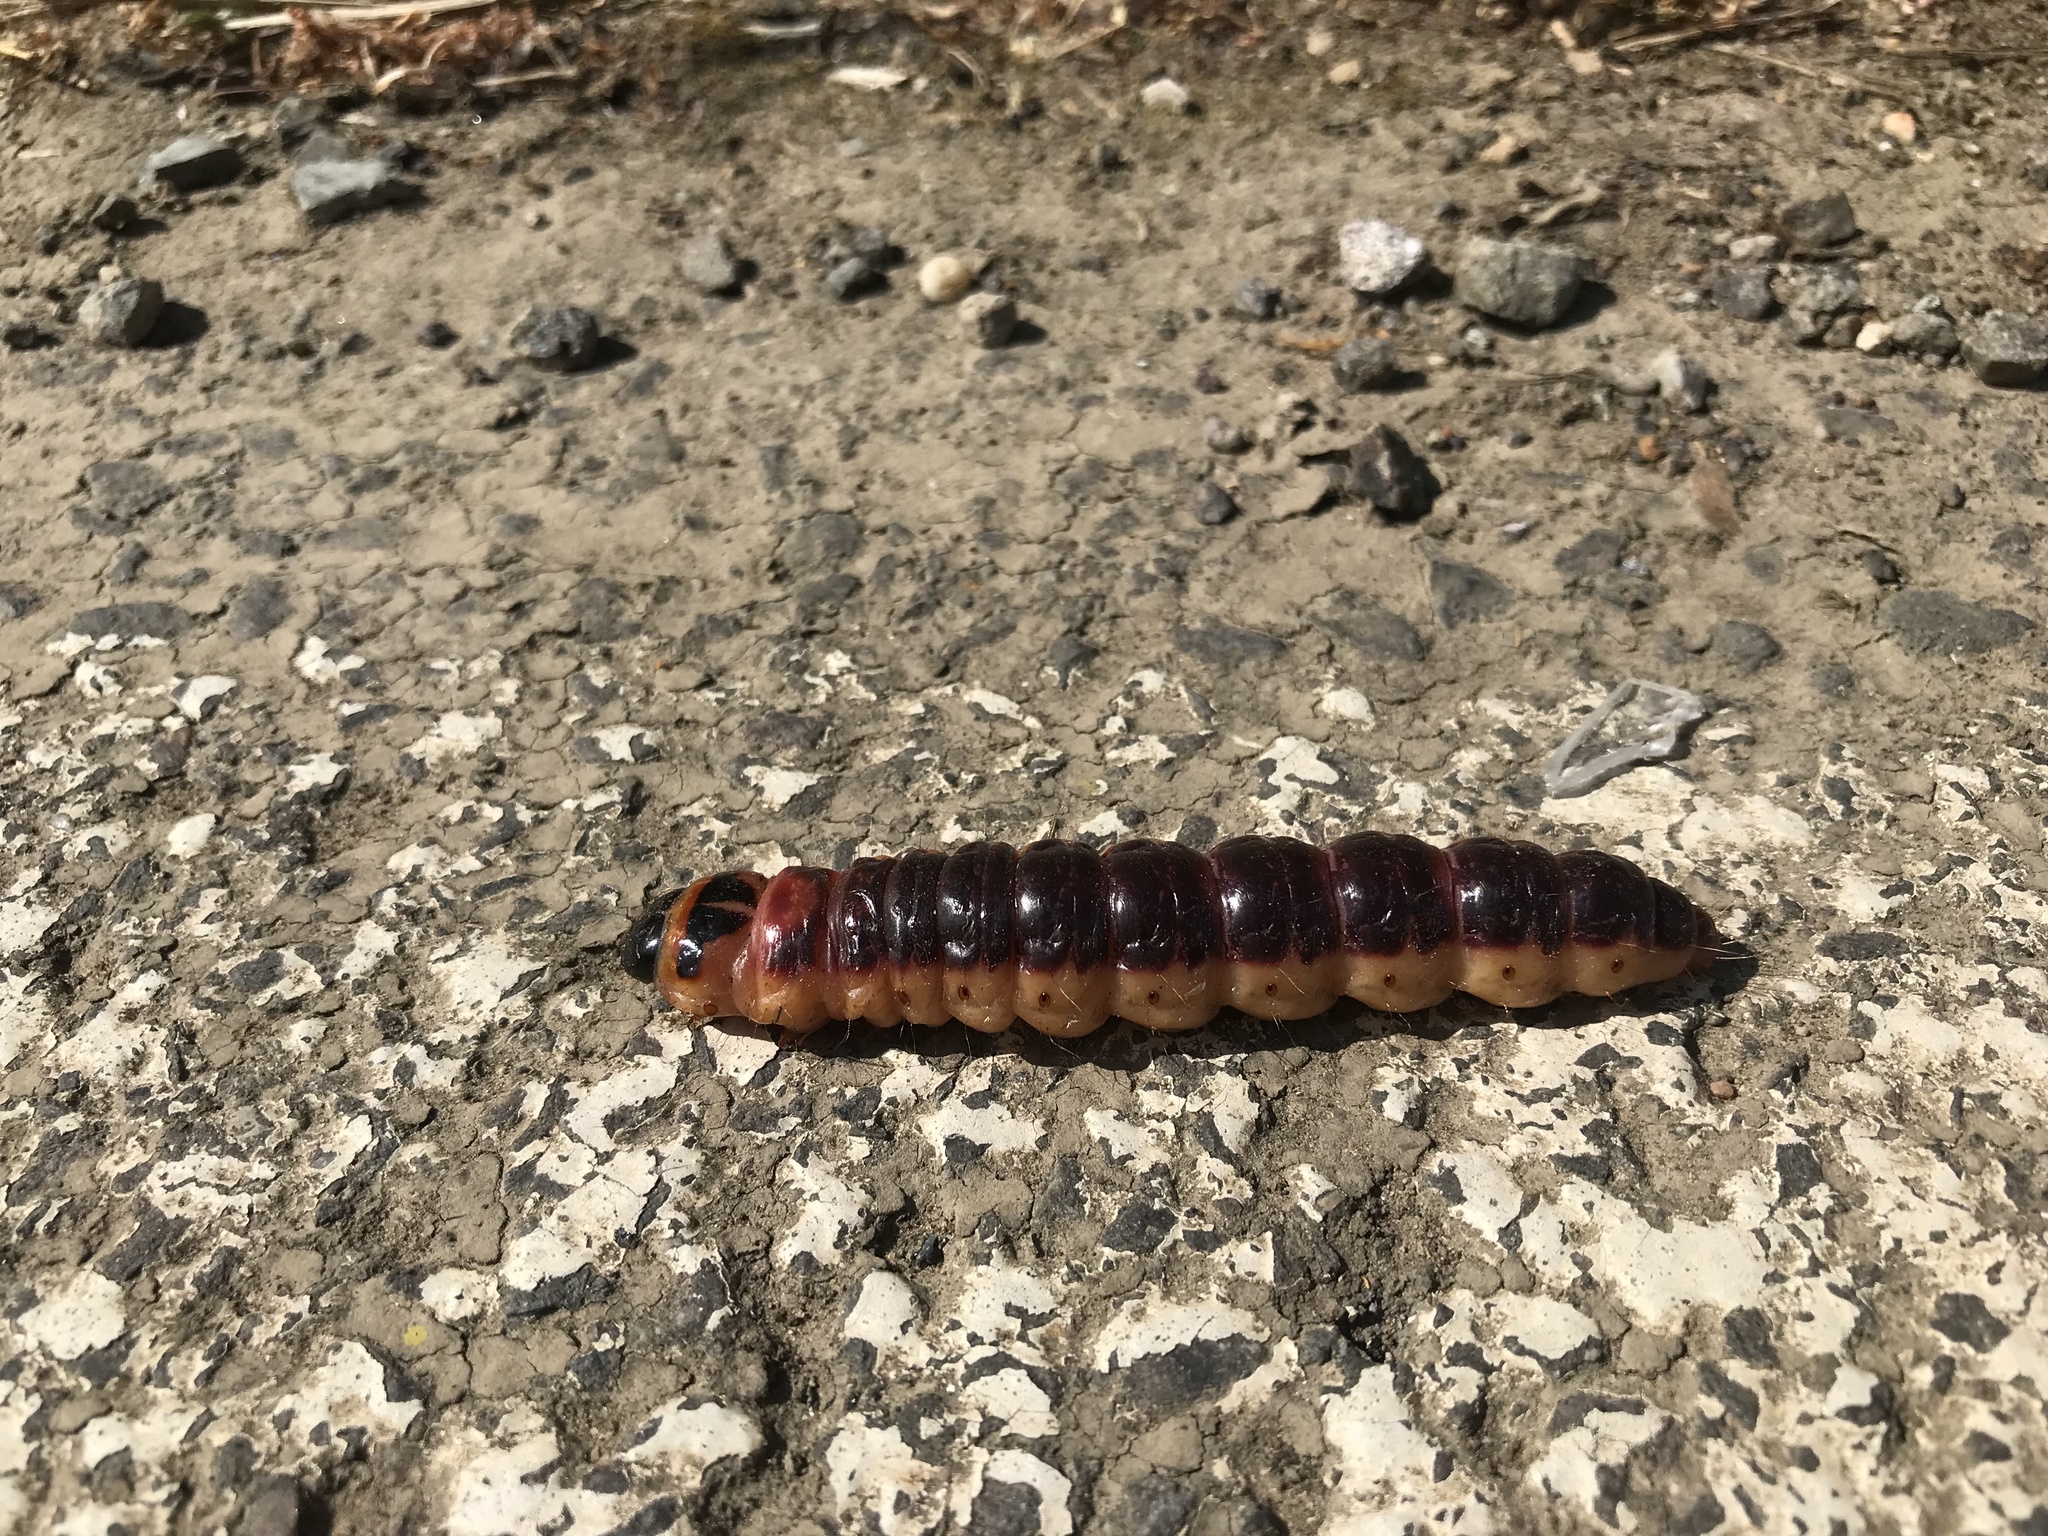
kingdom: Animalia
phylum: Arthropoda
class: Insecta
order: Lepidoptera
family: Cossidae
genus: Cossus
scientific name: Cossus cossus
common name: Goat moth
